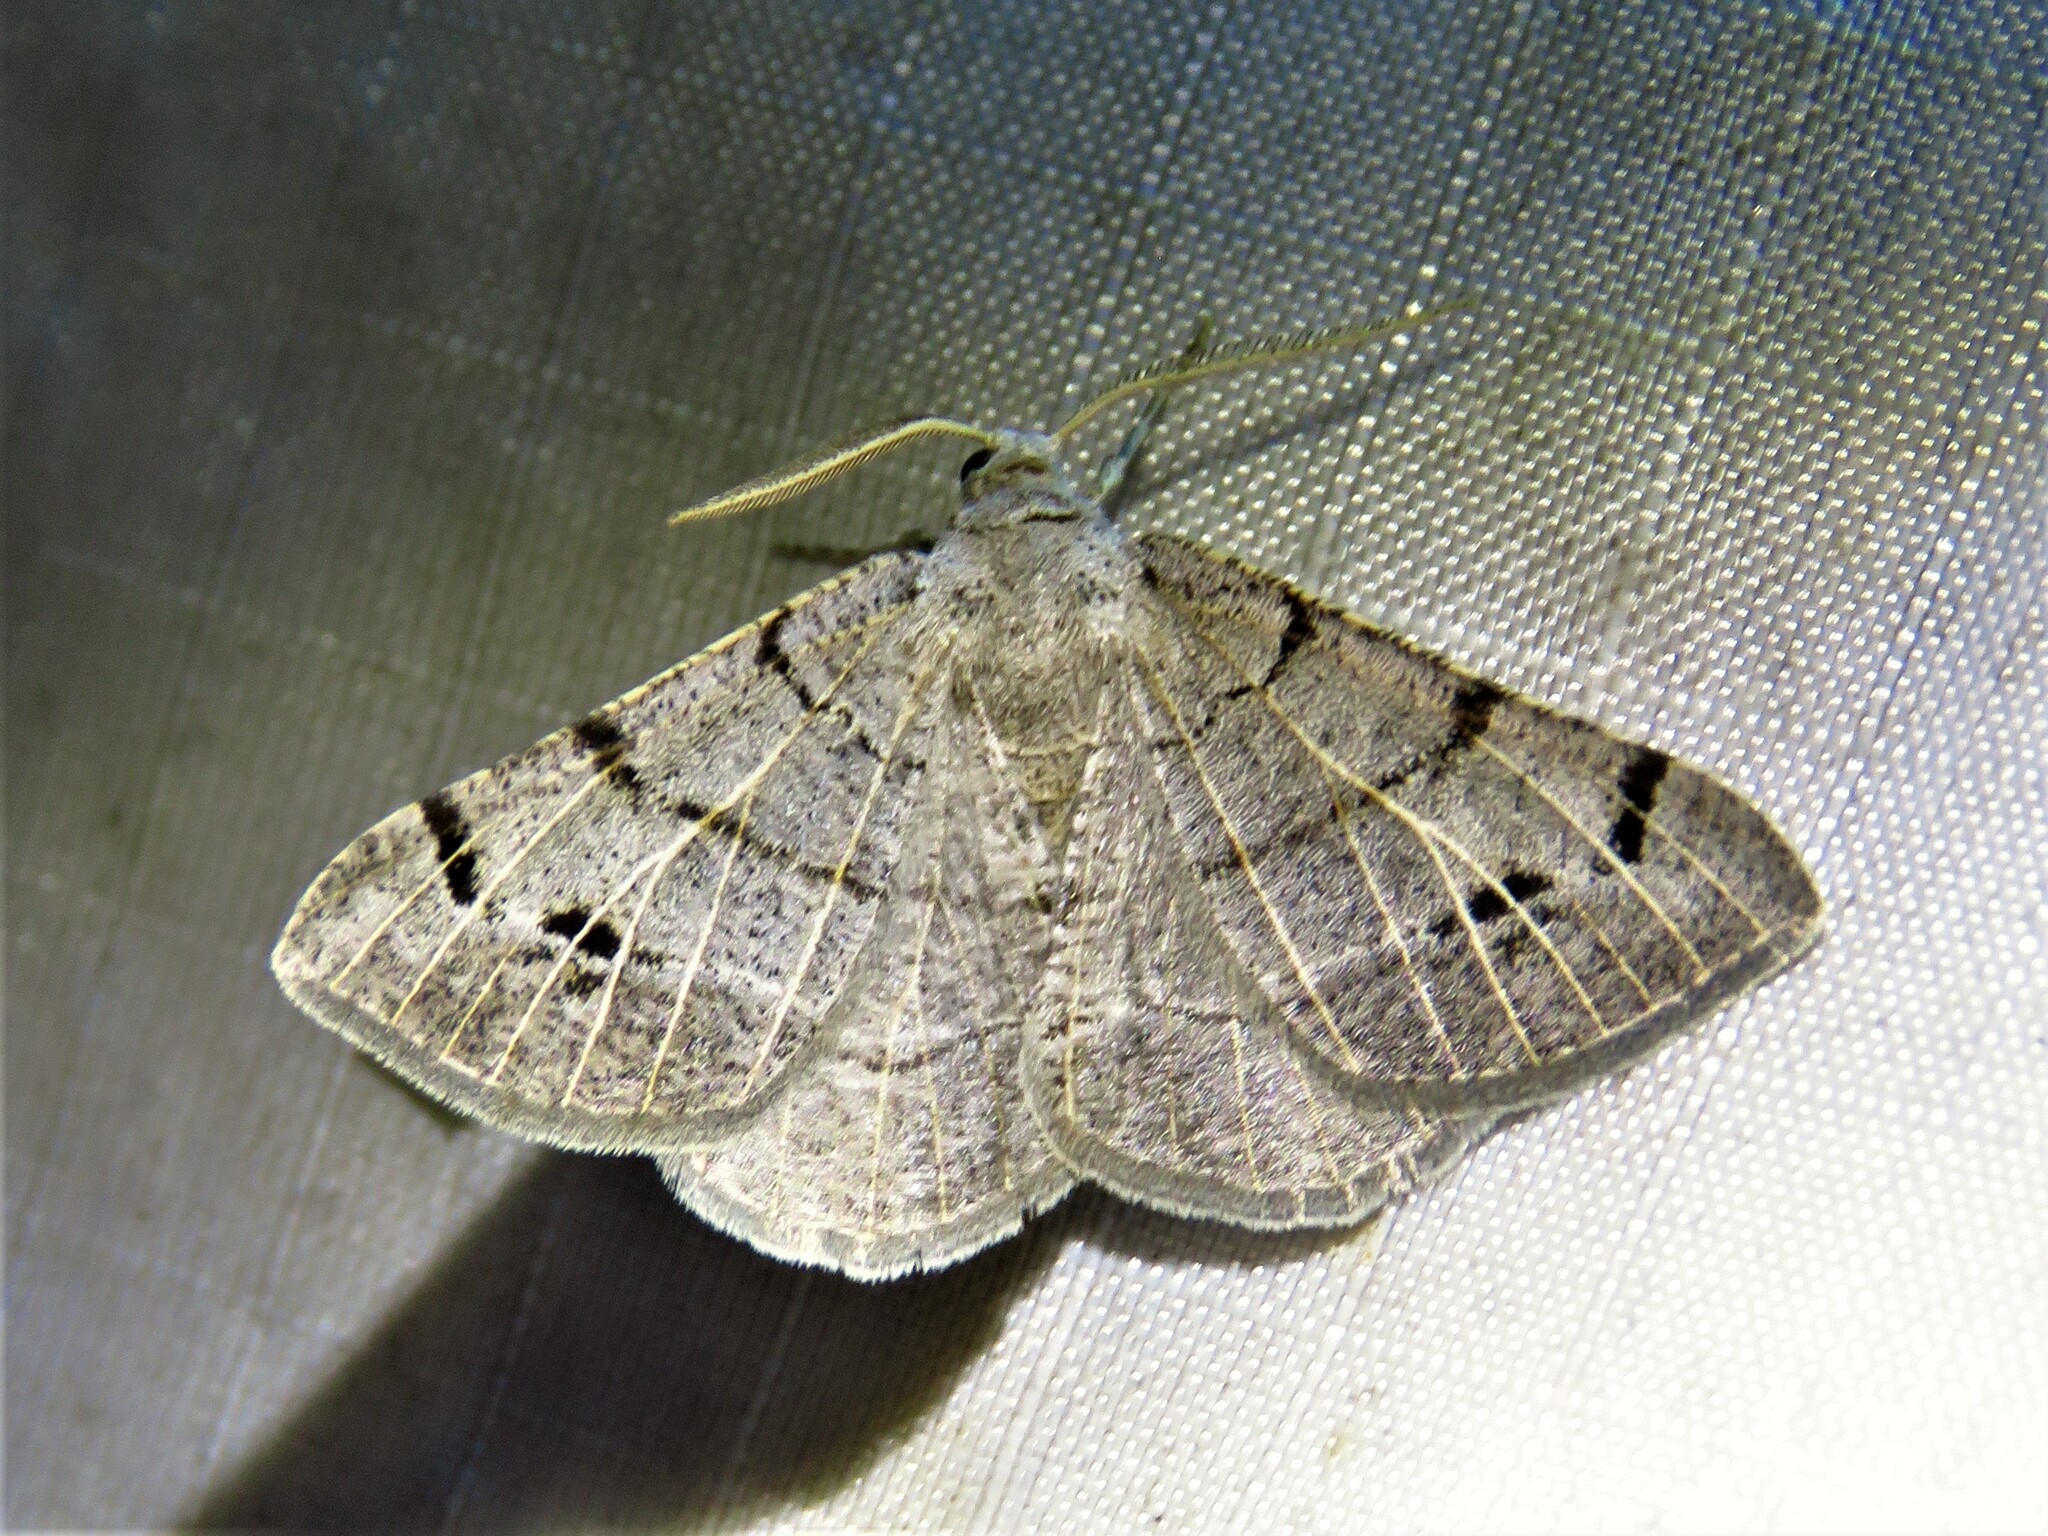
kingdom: Animalia
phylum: Arthropoda
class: Insecta
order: Lepidoptera
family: Geometridae
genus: Isturgia
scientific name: Isturgia dislocaria
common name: Pale-viened enconista
